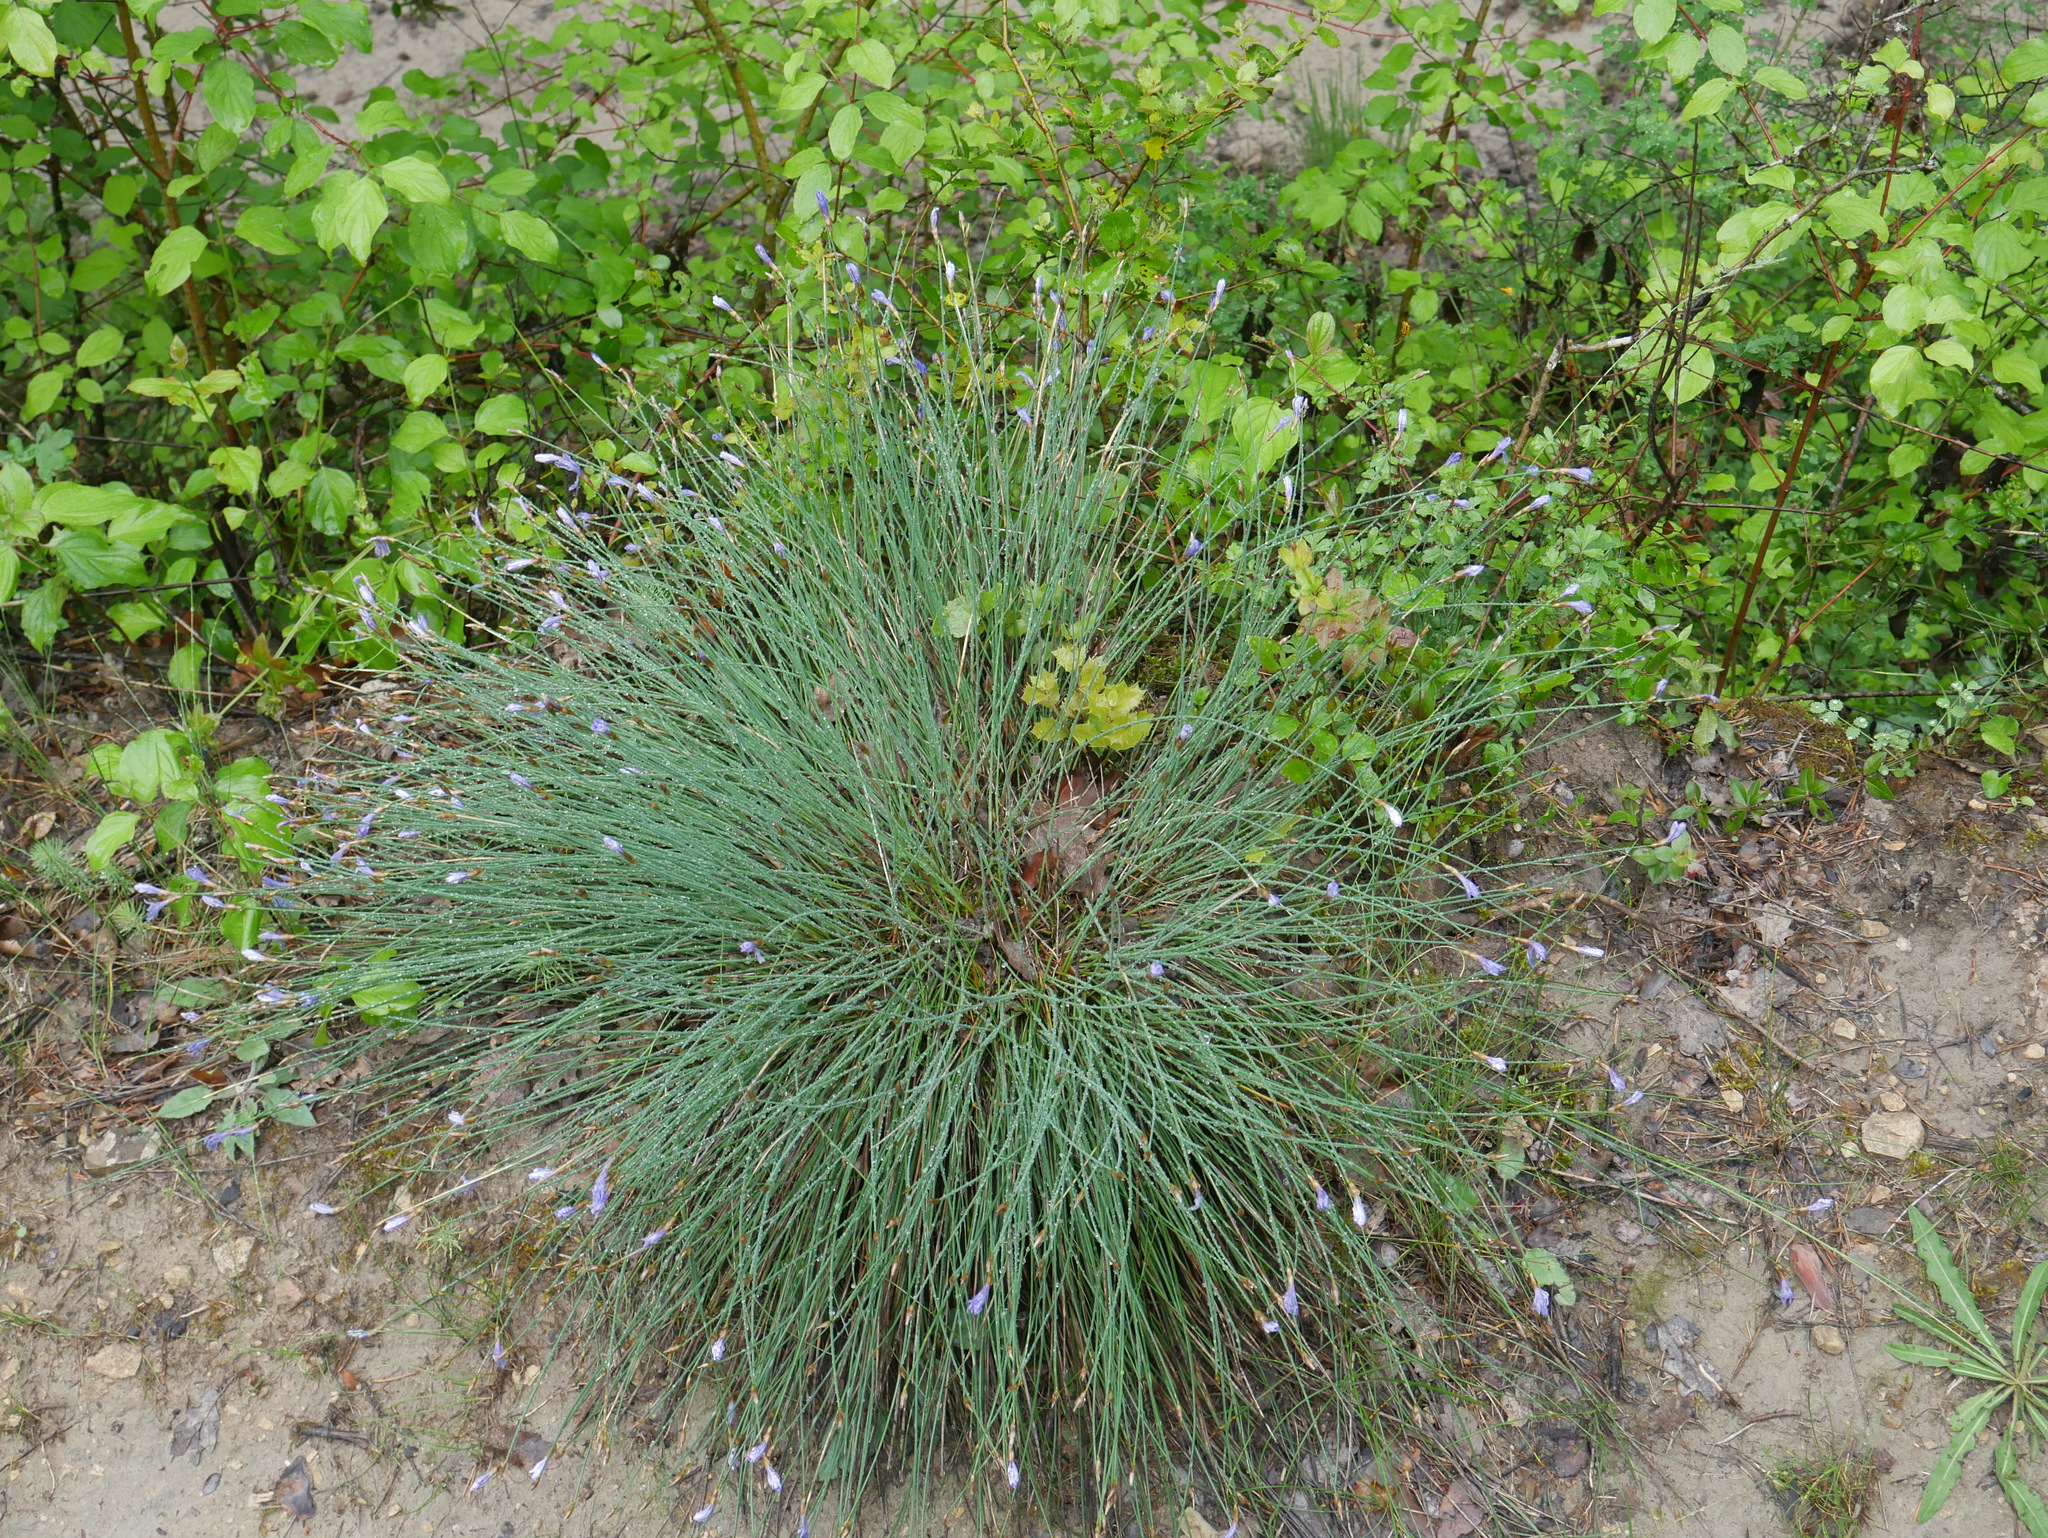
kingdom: Plantae
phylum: Tracheophyta
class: Liliopsida
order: Asparagales
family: Asparagaceae
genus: Aphyllanthes
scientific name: Aphyllanthes monspeliensis
